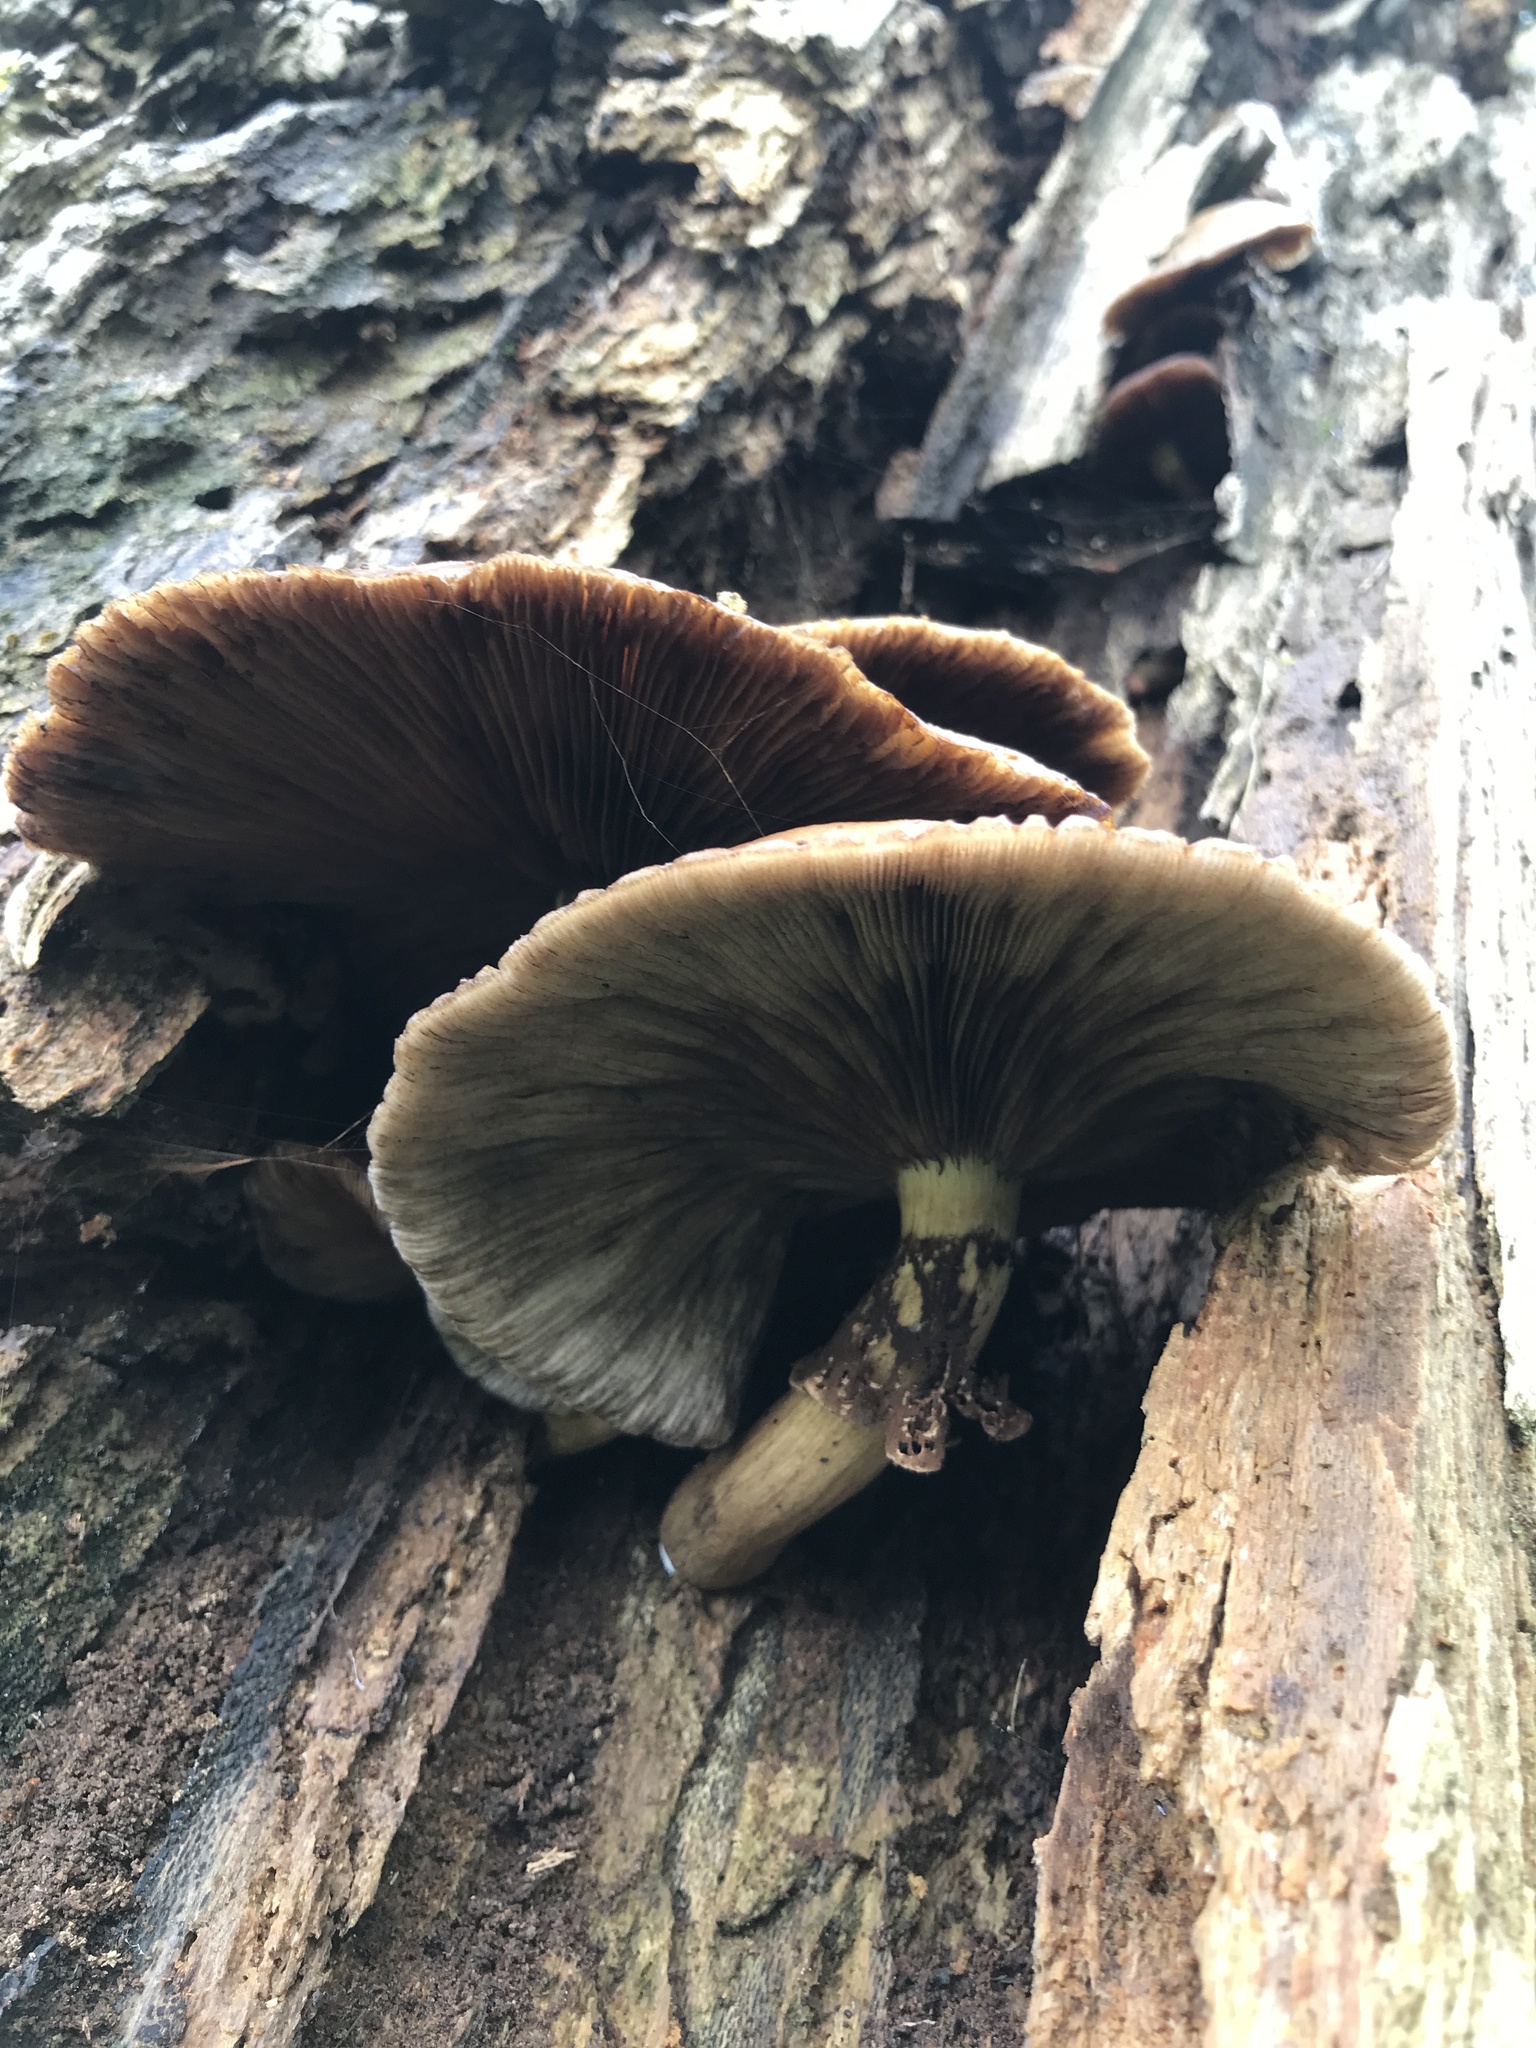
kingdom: Fungi
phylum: Basidiomycota
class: Agaricomycetes
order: Agaricales
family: Tubariaceae
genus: Cyclocybe
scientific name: Cyclocybe parasitica
